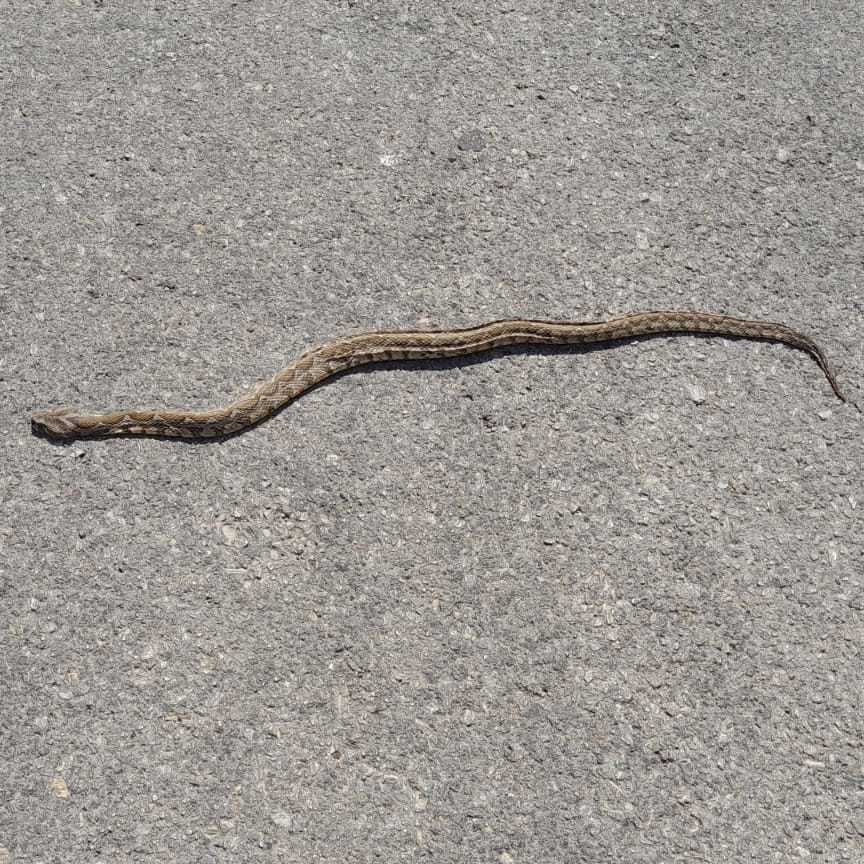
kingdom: Animalia
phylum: Chordata
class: Squamata
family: Viperidae
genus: Daboia
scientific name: Daboia palaestinae
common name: Palestine viper
